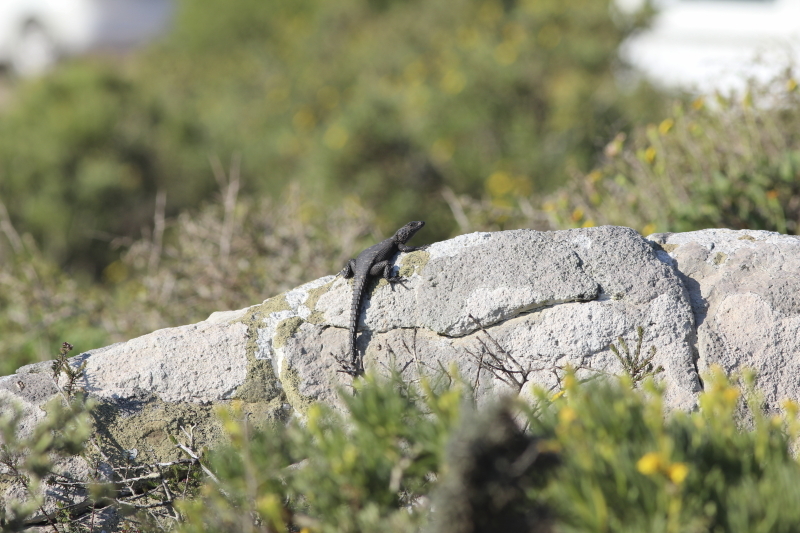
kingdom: Animalia
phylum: Chordata
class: Squamata
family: Cordylidae
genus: Karusasaurus
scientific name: Karusasaurus polyzonus
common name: Karoo girdled lizard
